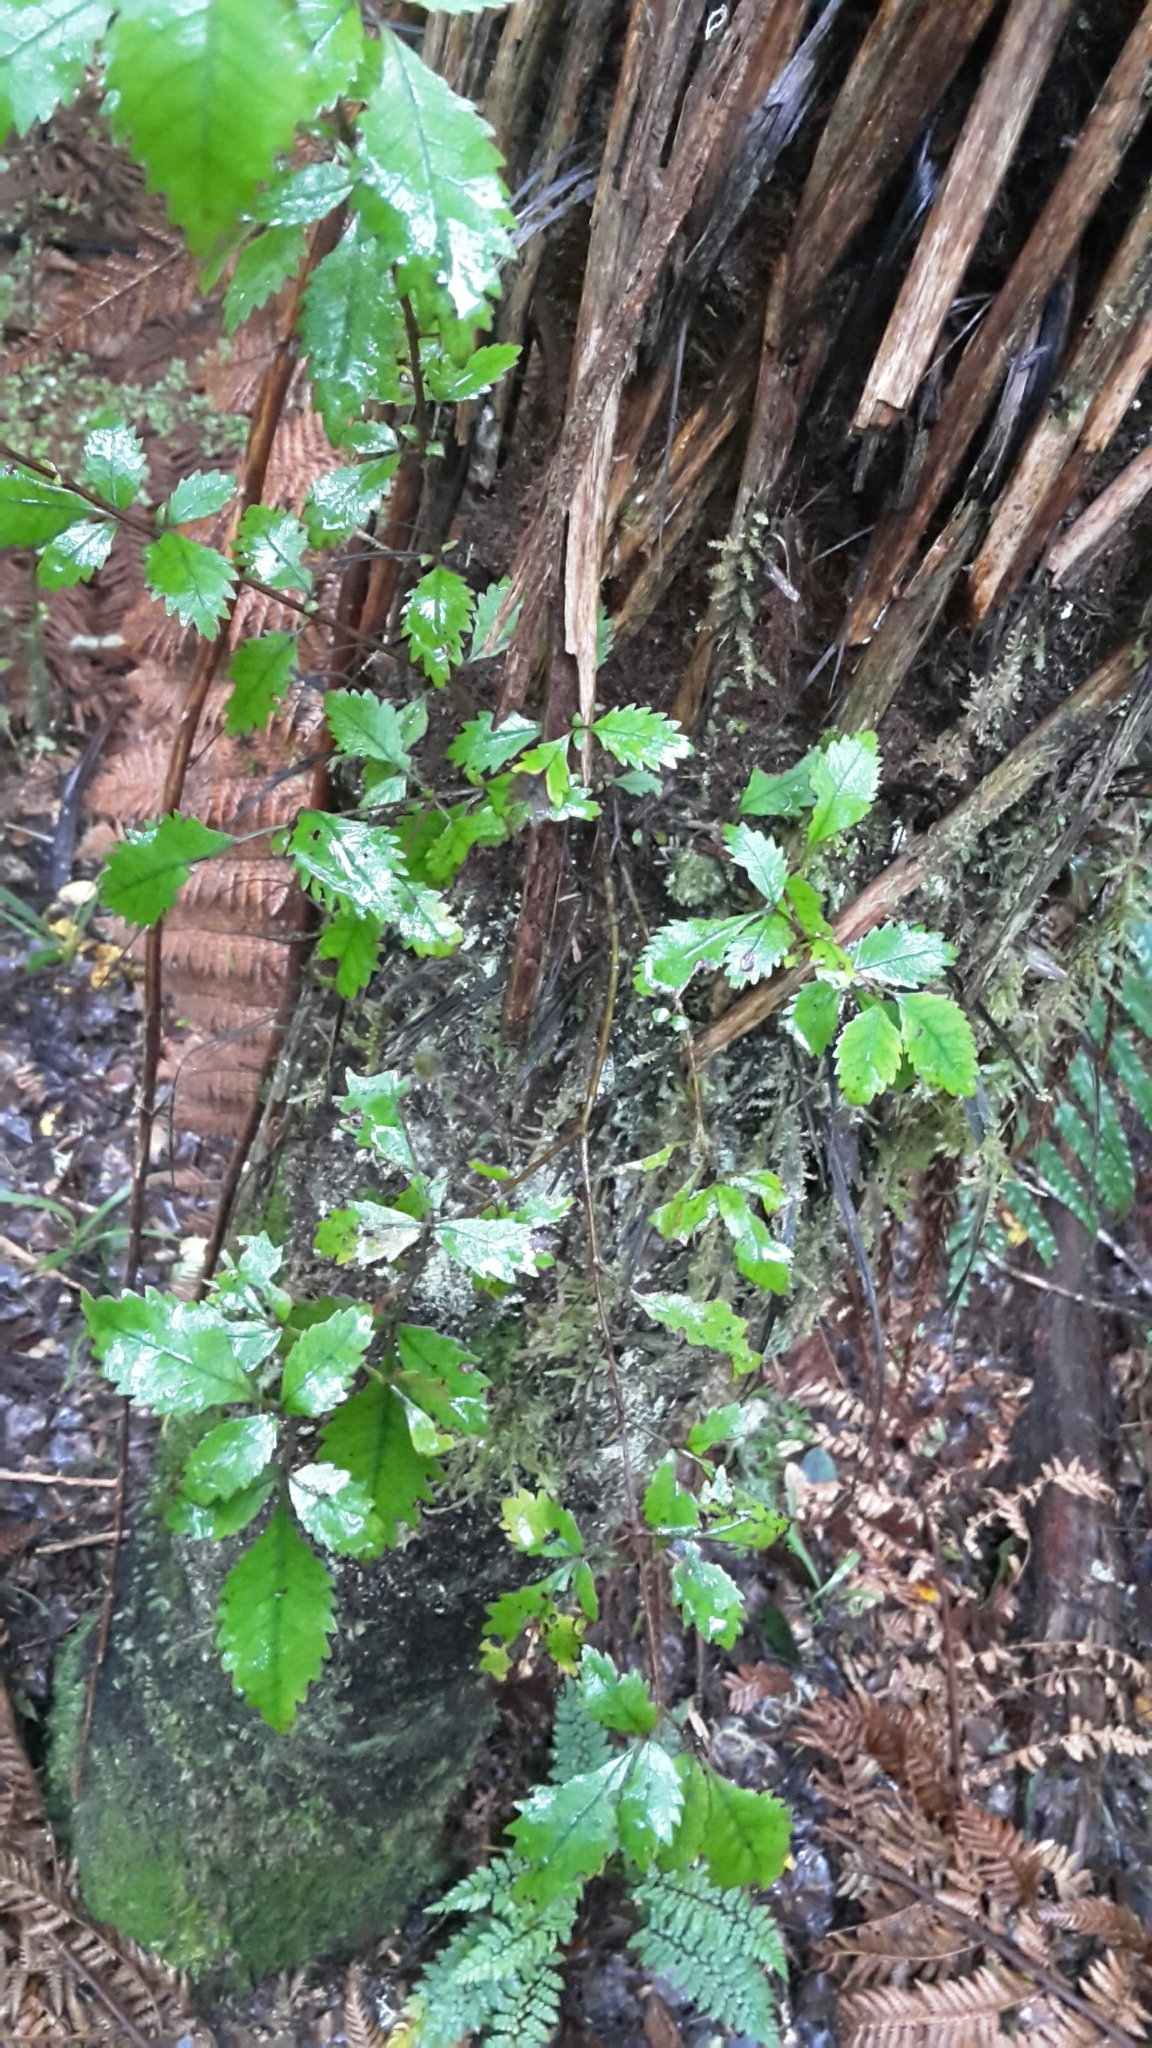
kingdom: Plantae
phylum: Tracheophyta
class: Magnoliopsida
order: Oxalidales
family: Cunoniaceae
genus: Pterophylla
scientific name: Pterophylla racemosa
